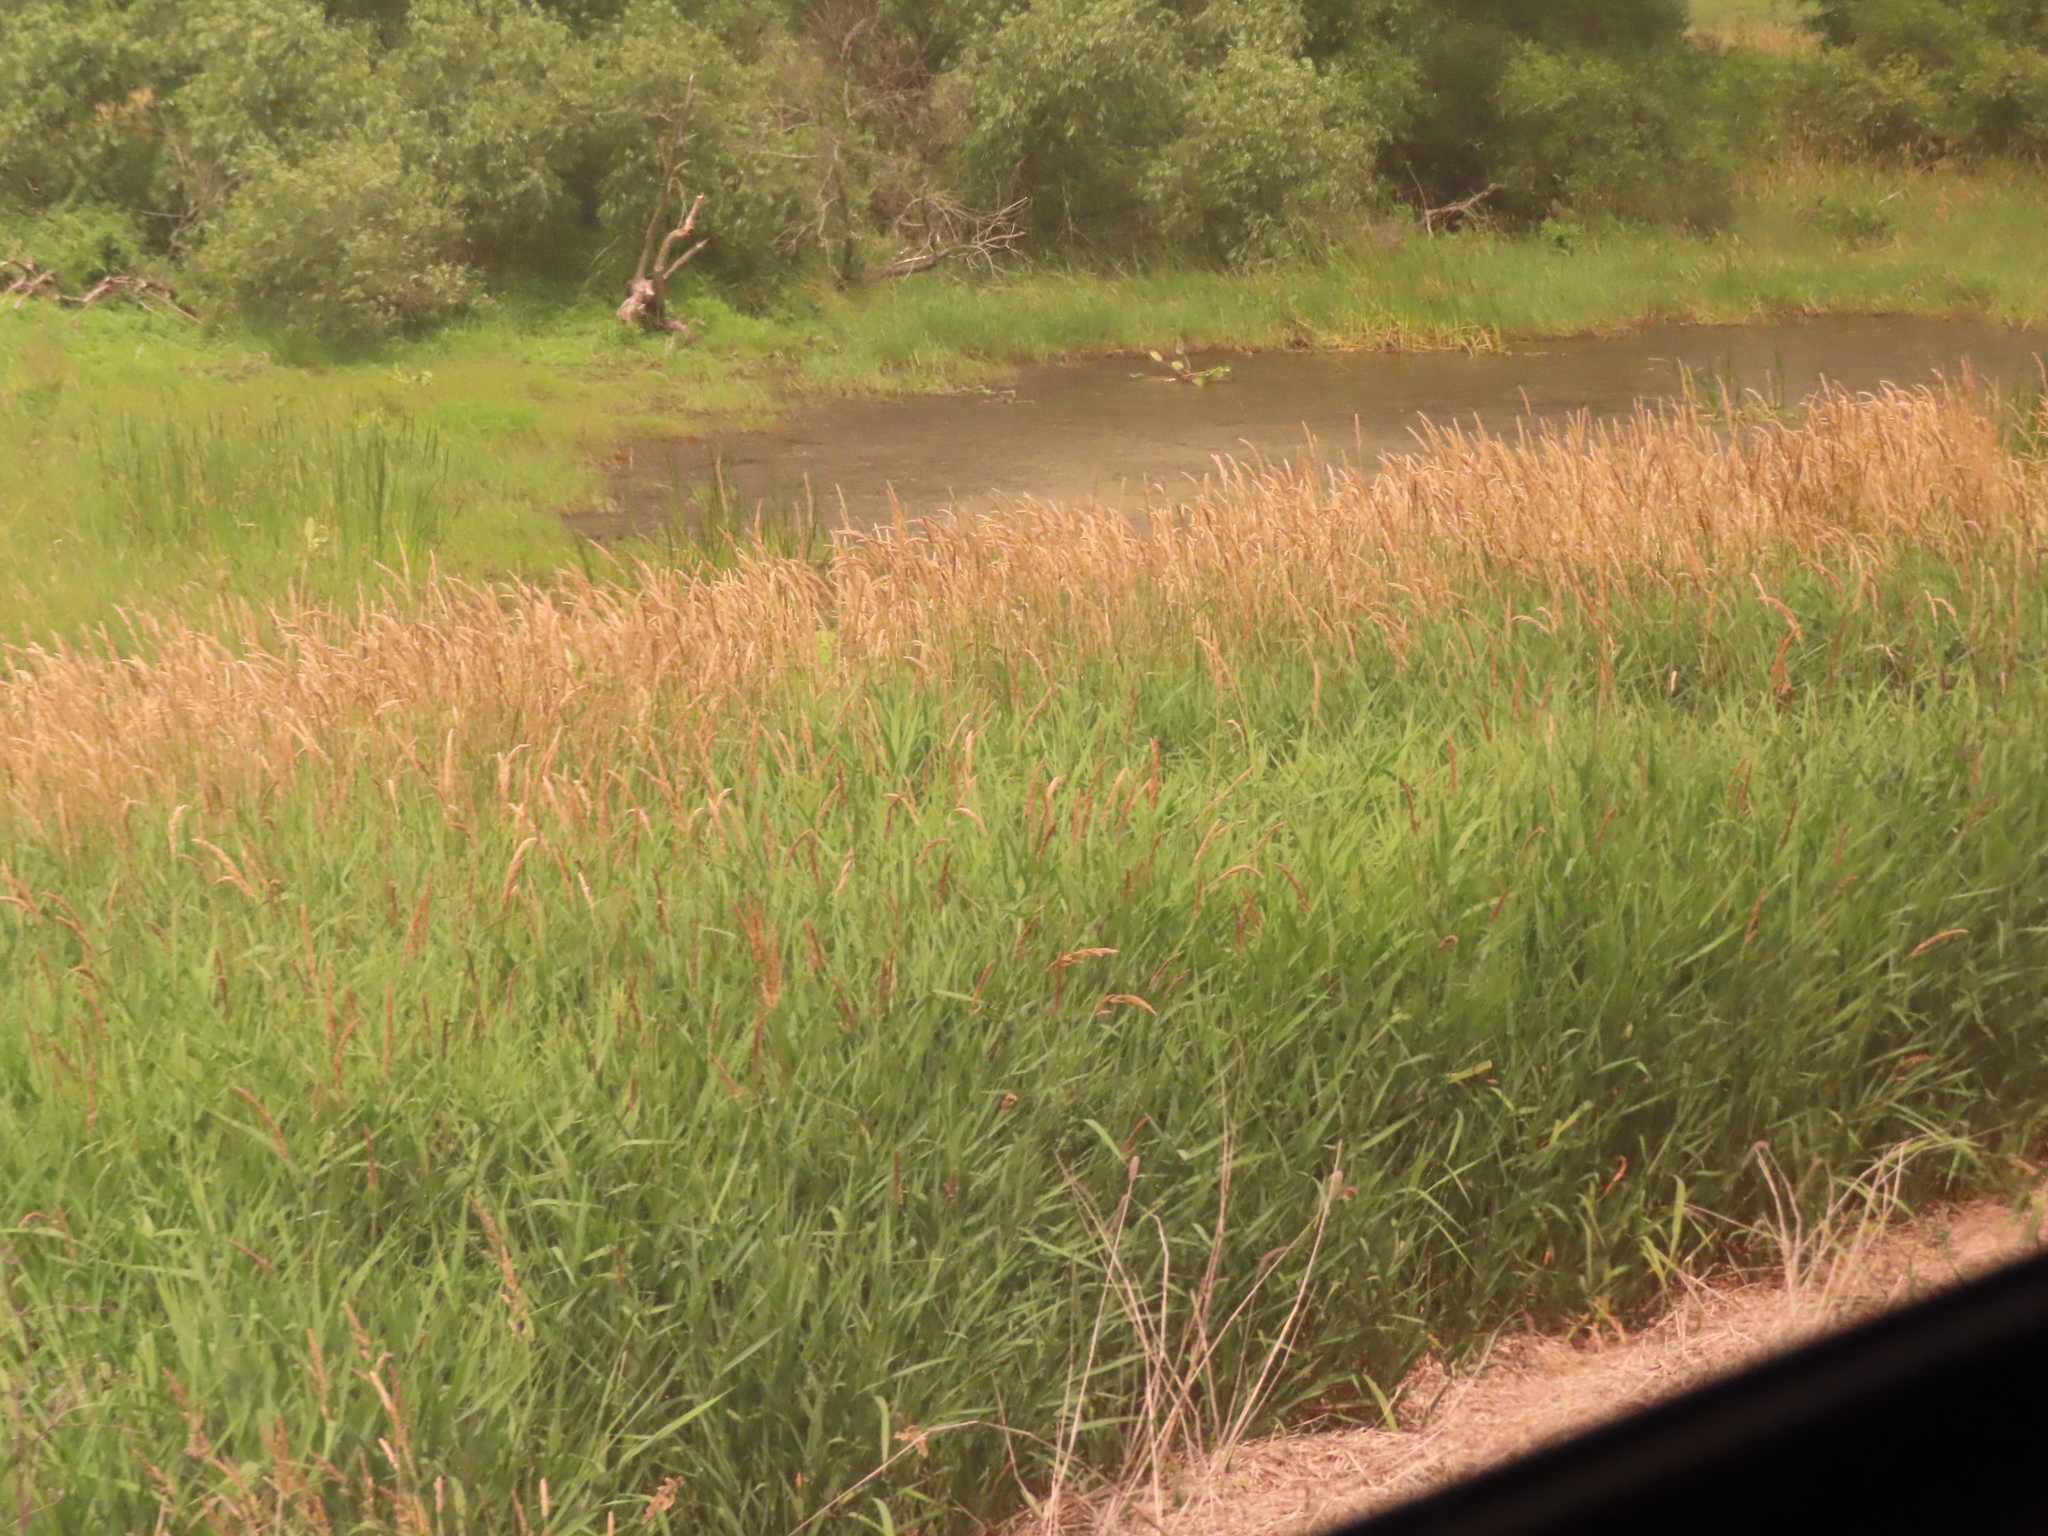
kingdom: Plantae
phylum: Tracheophyta
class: Liliopsida
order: Poales
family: Poaceae
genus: Phalaris
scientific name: Phalaris arundinacea
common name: Reed canary-grass
